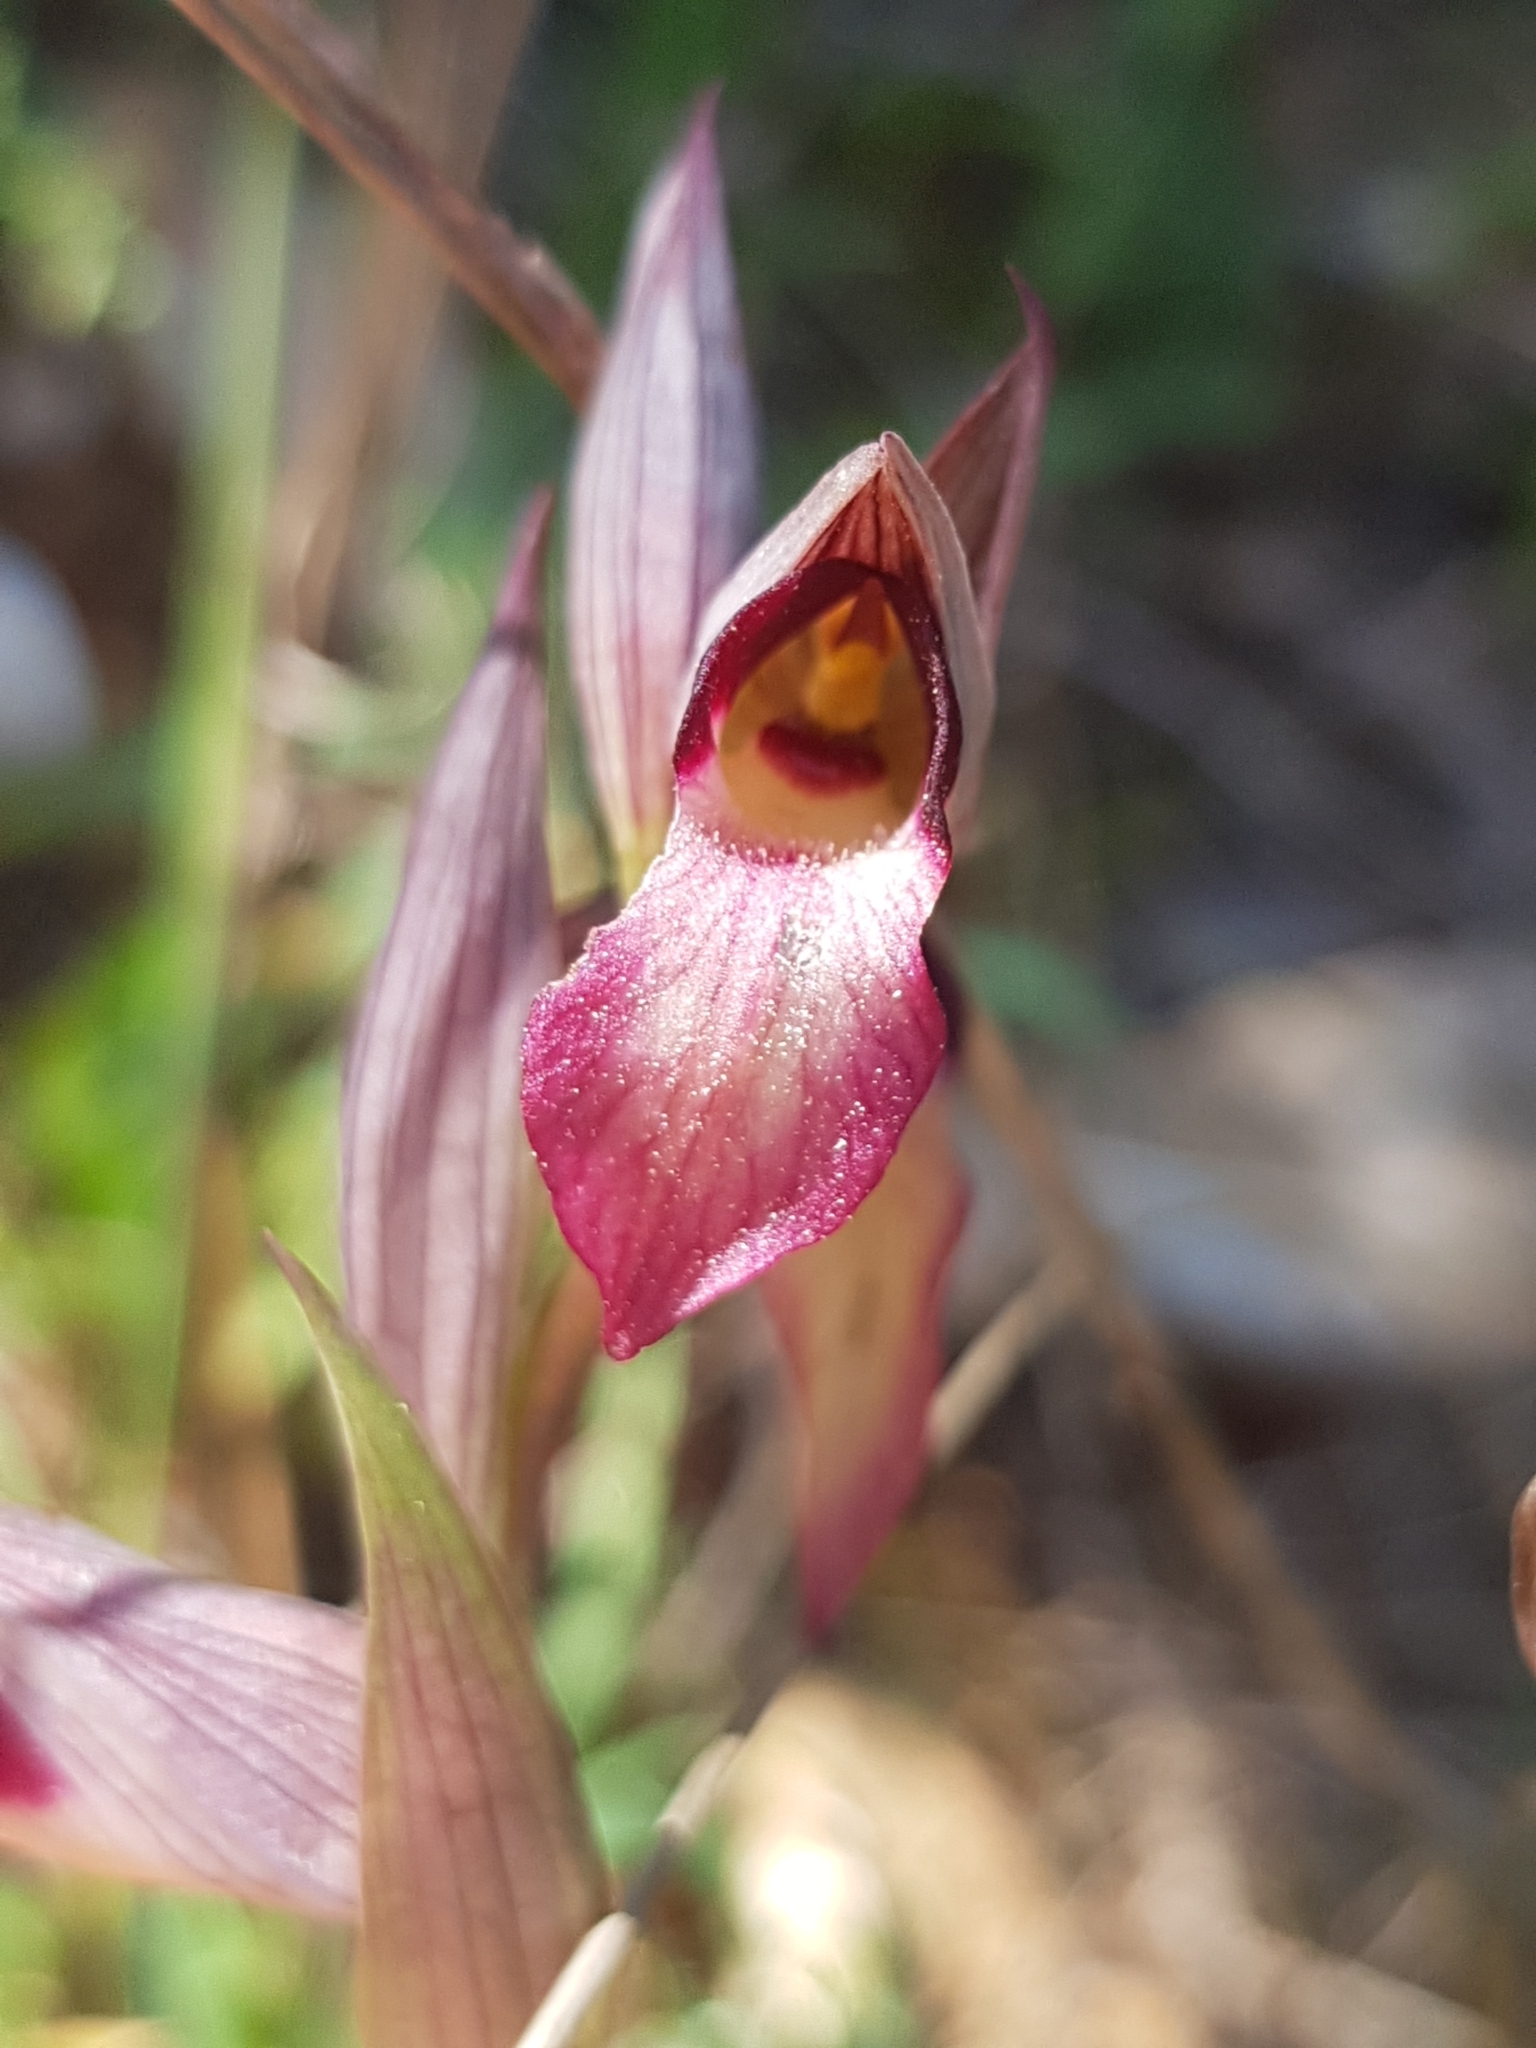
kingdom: Plantae
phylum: Tracheophyta
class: Liliopsida
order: Asparagales
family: Orchidaceae
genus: Serapias
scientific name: Serapias lingua
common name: Tongue-orchid
